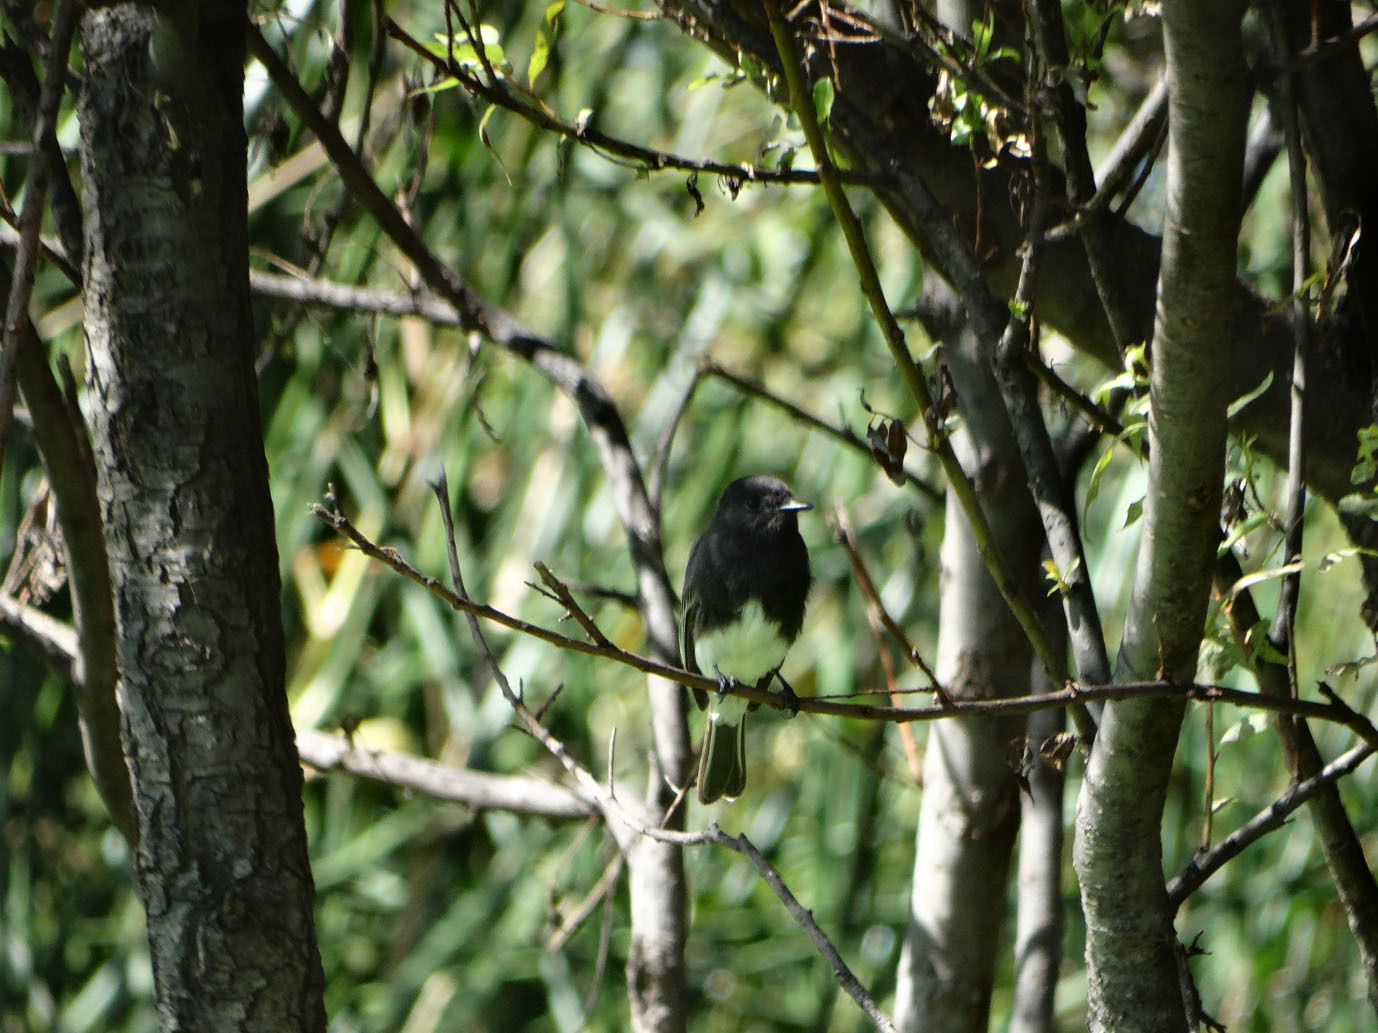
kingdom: Animalia
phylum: Chordata
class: Aves
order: Passeriformes
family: Tyrannidae
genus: Sayornis
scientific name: Sayornis nigricans
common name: Black phoebe
